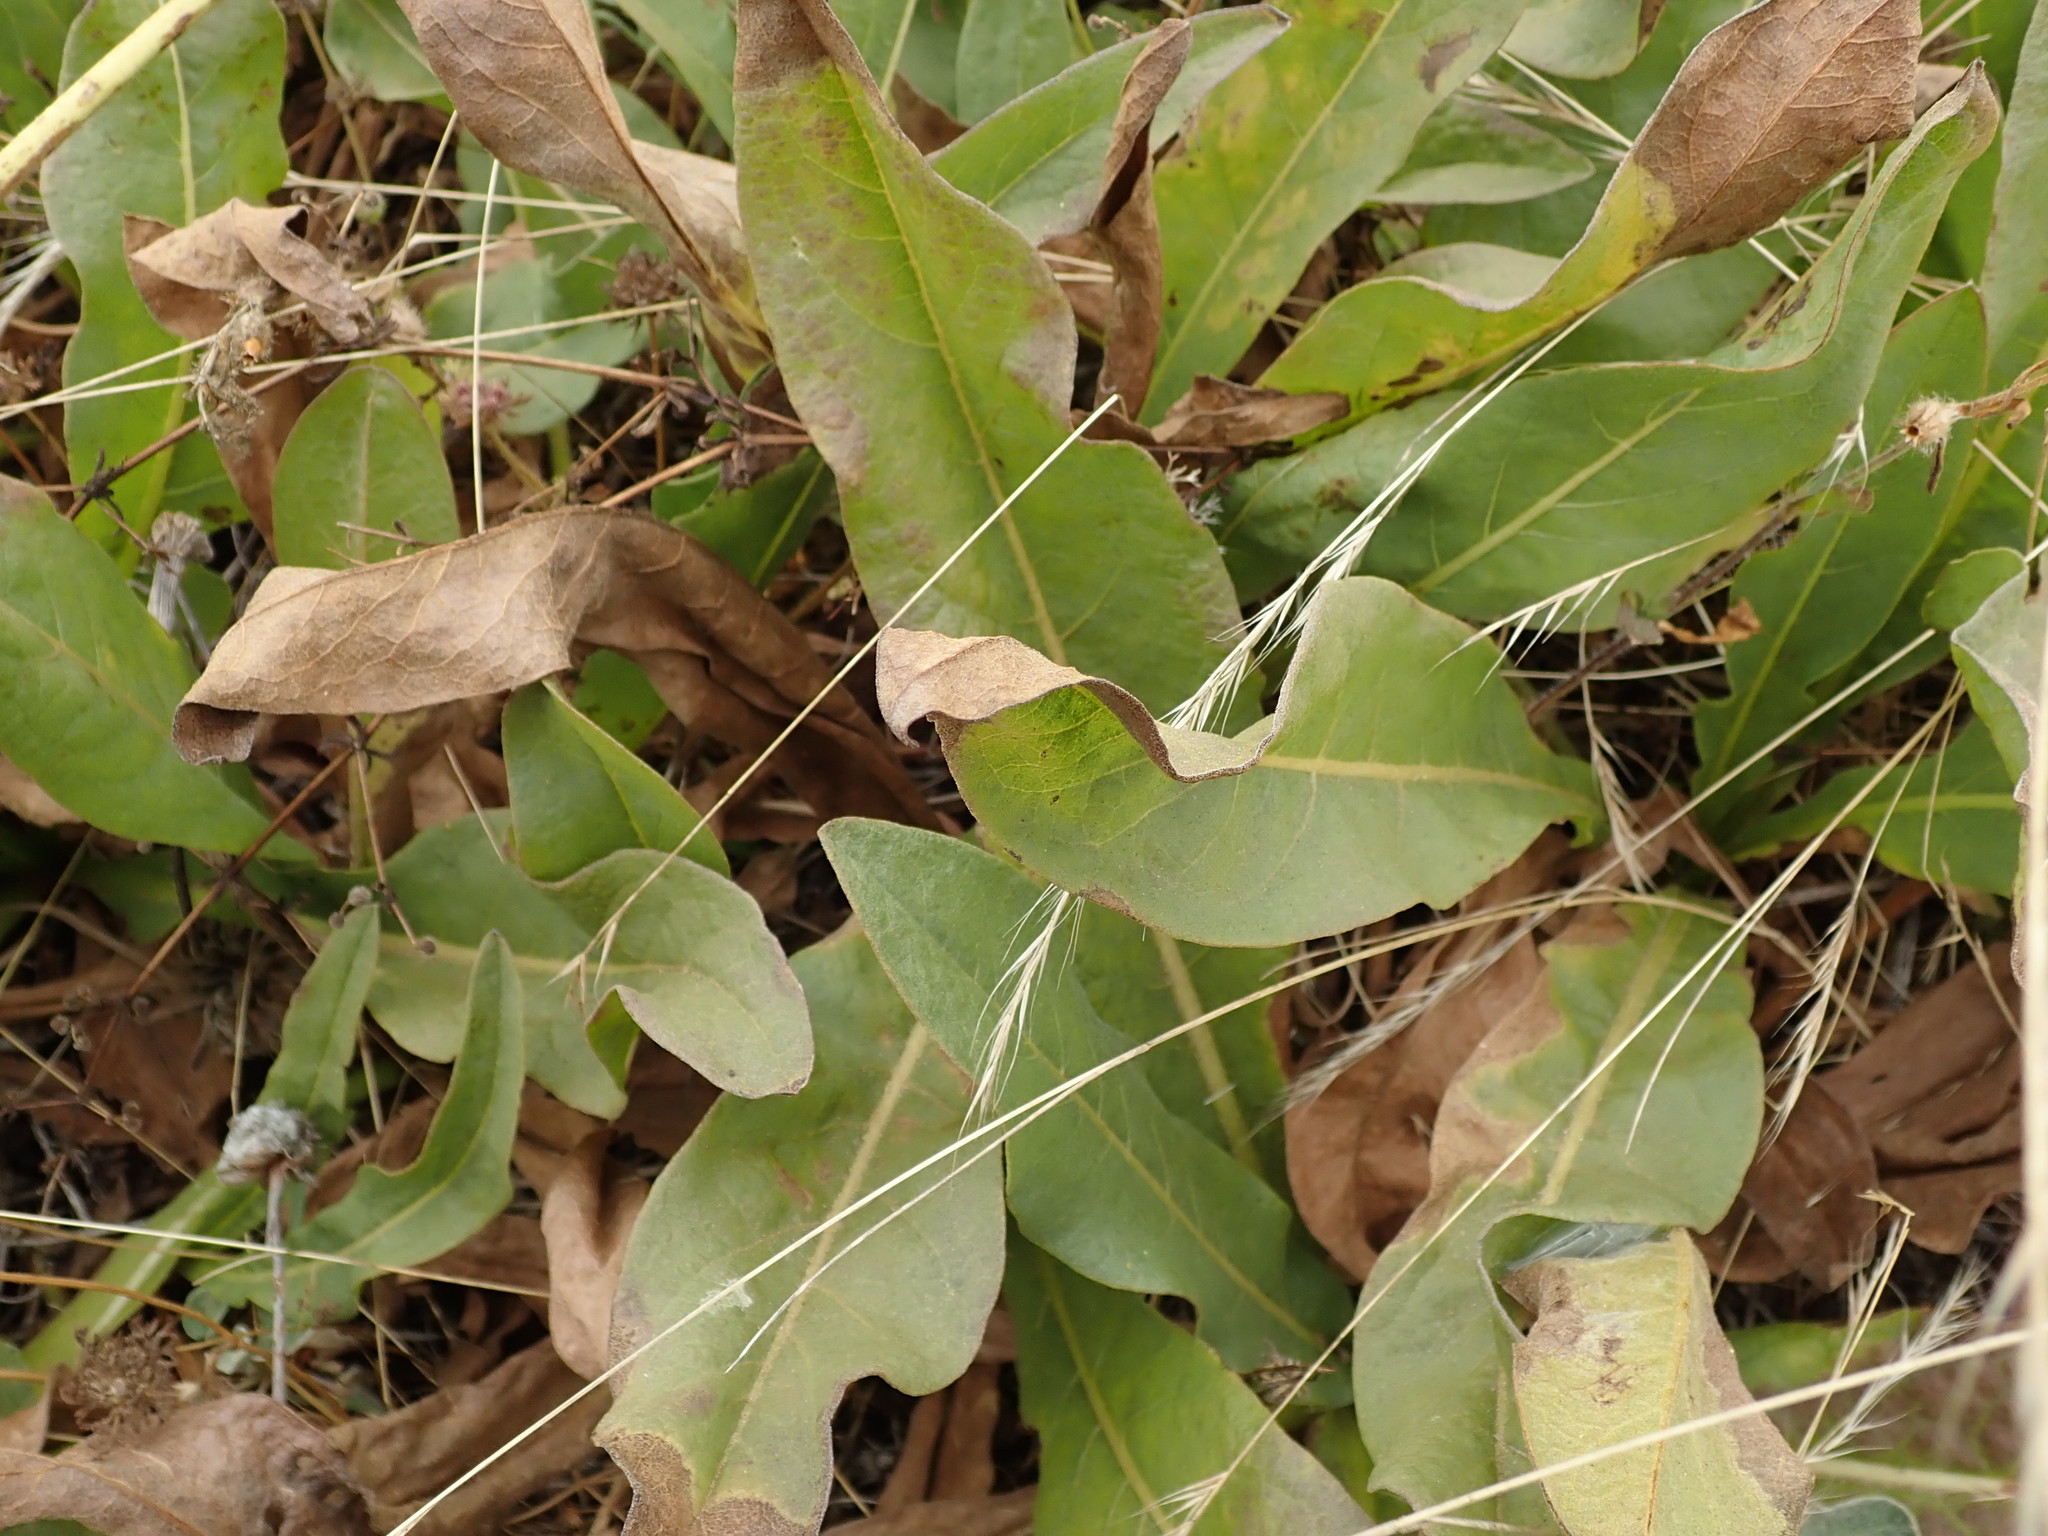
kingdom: Plantae
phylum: Tracheophyta
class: Magnoliopsida
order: Asterales
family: Asteraceae
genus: Wyethia
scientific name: Wyethia angustifolia
